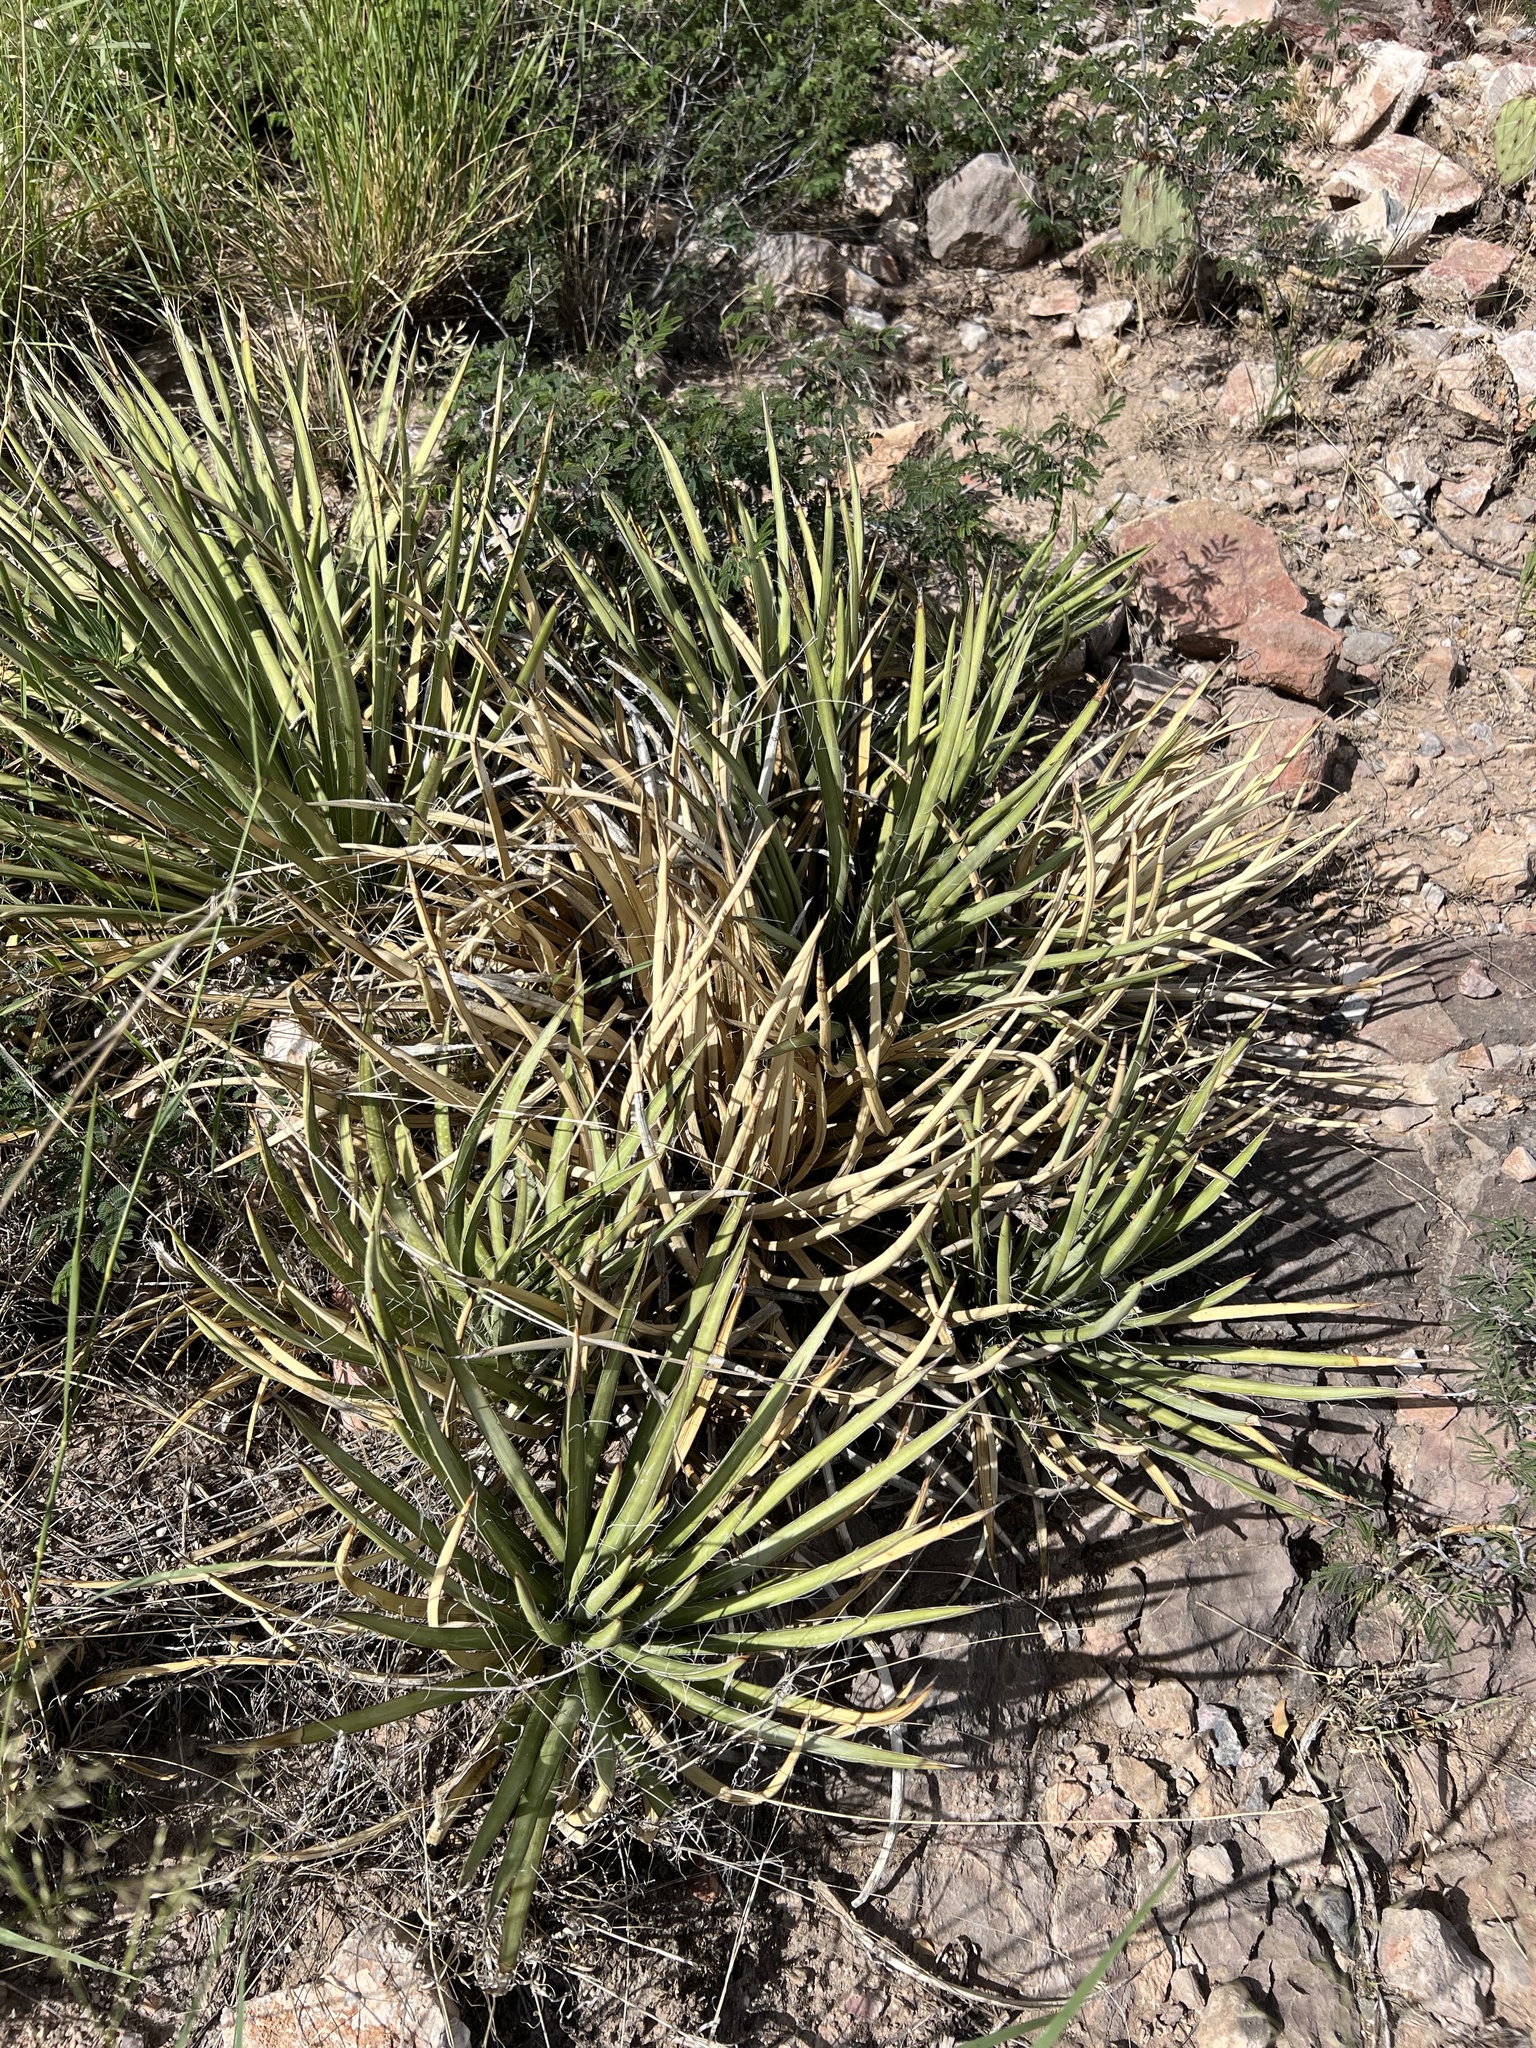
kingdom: Plantae
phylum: Tracheophyta
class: Liliopsida
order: Asparagales
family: Asparagaceae
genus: Agave
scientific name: Agave schottii
